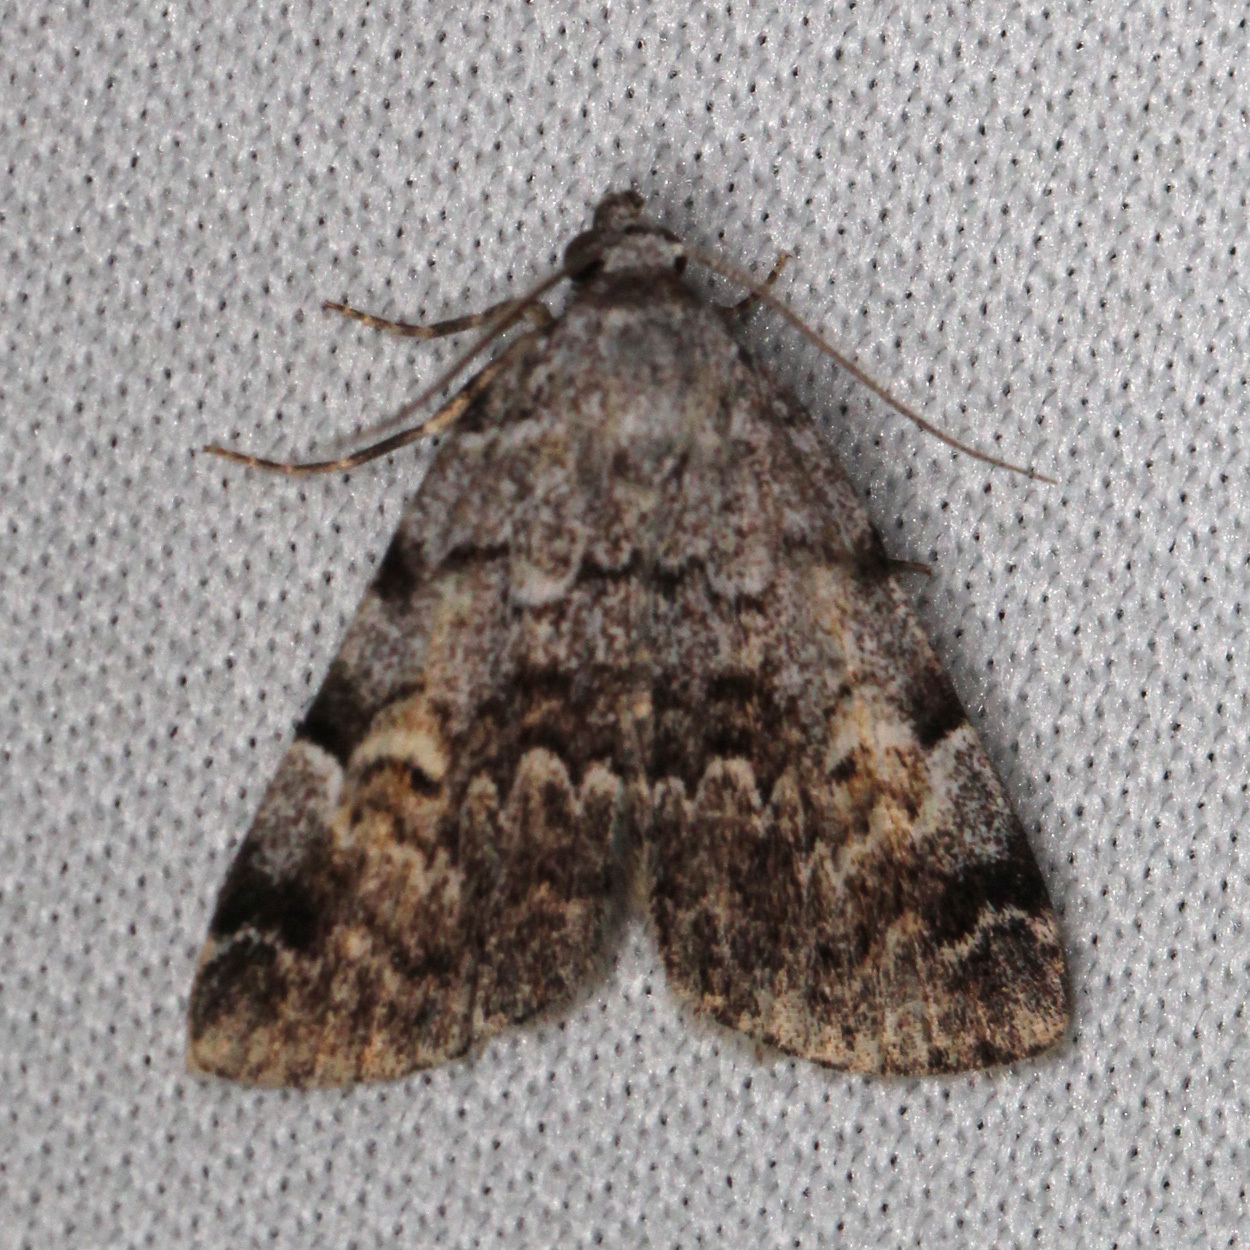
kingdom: Animalia
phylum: Arthropoda
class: Insecta
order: Lepidoptera
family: Erebidae
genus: Idia
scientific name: Idia americalis
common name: American idia moth
